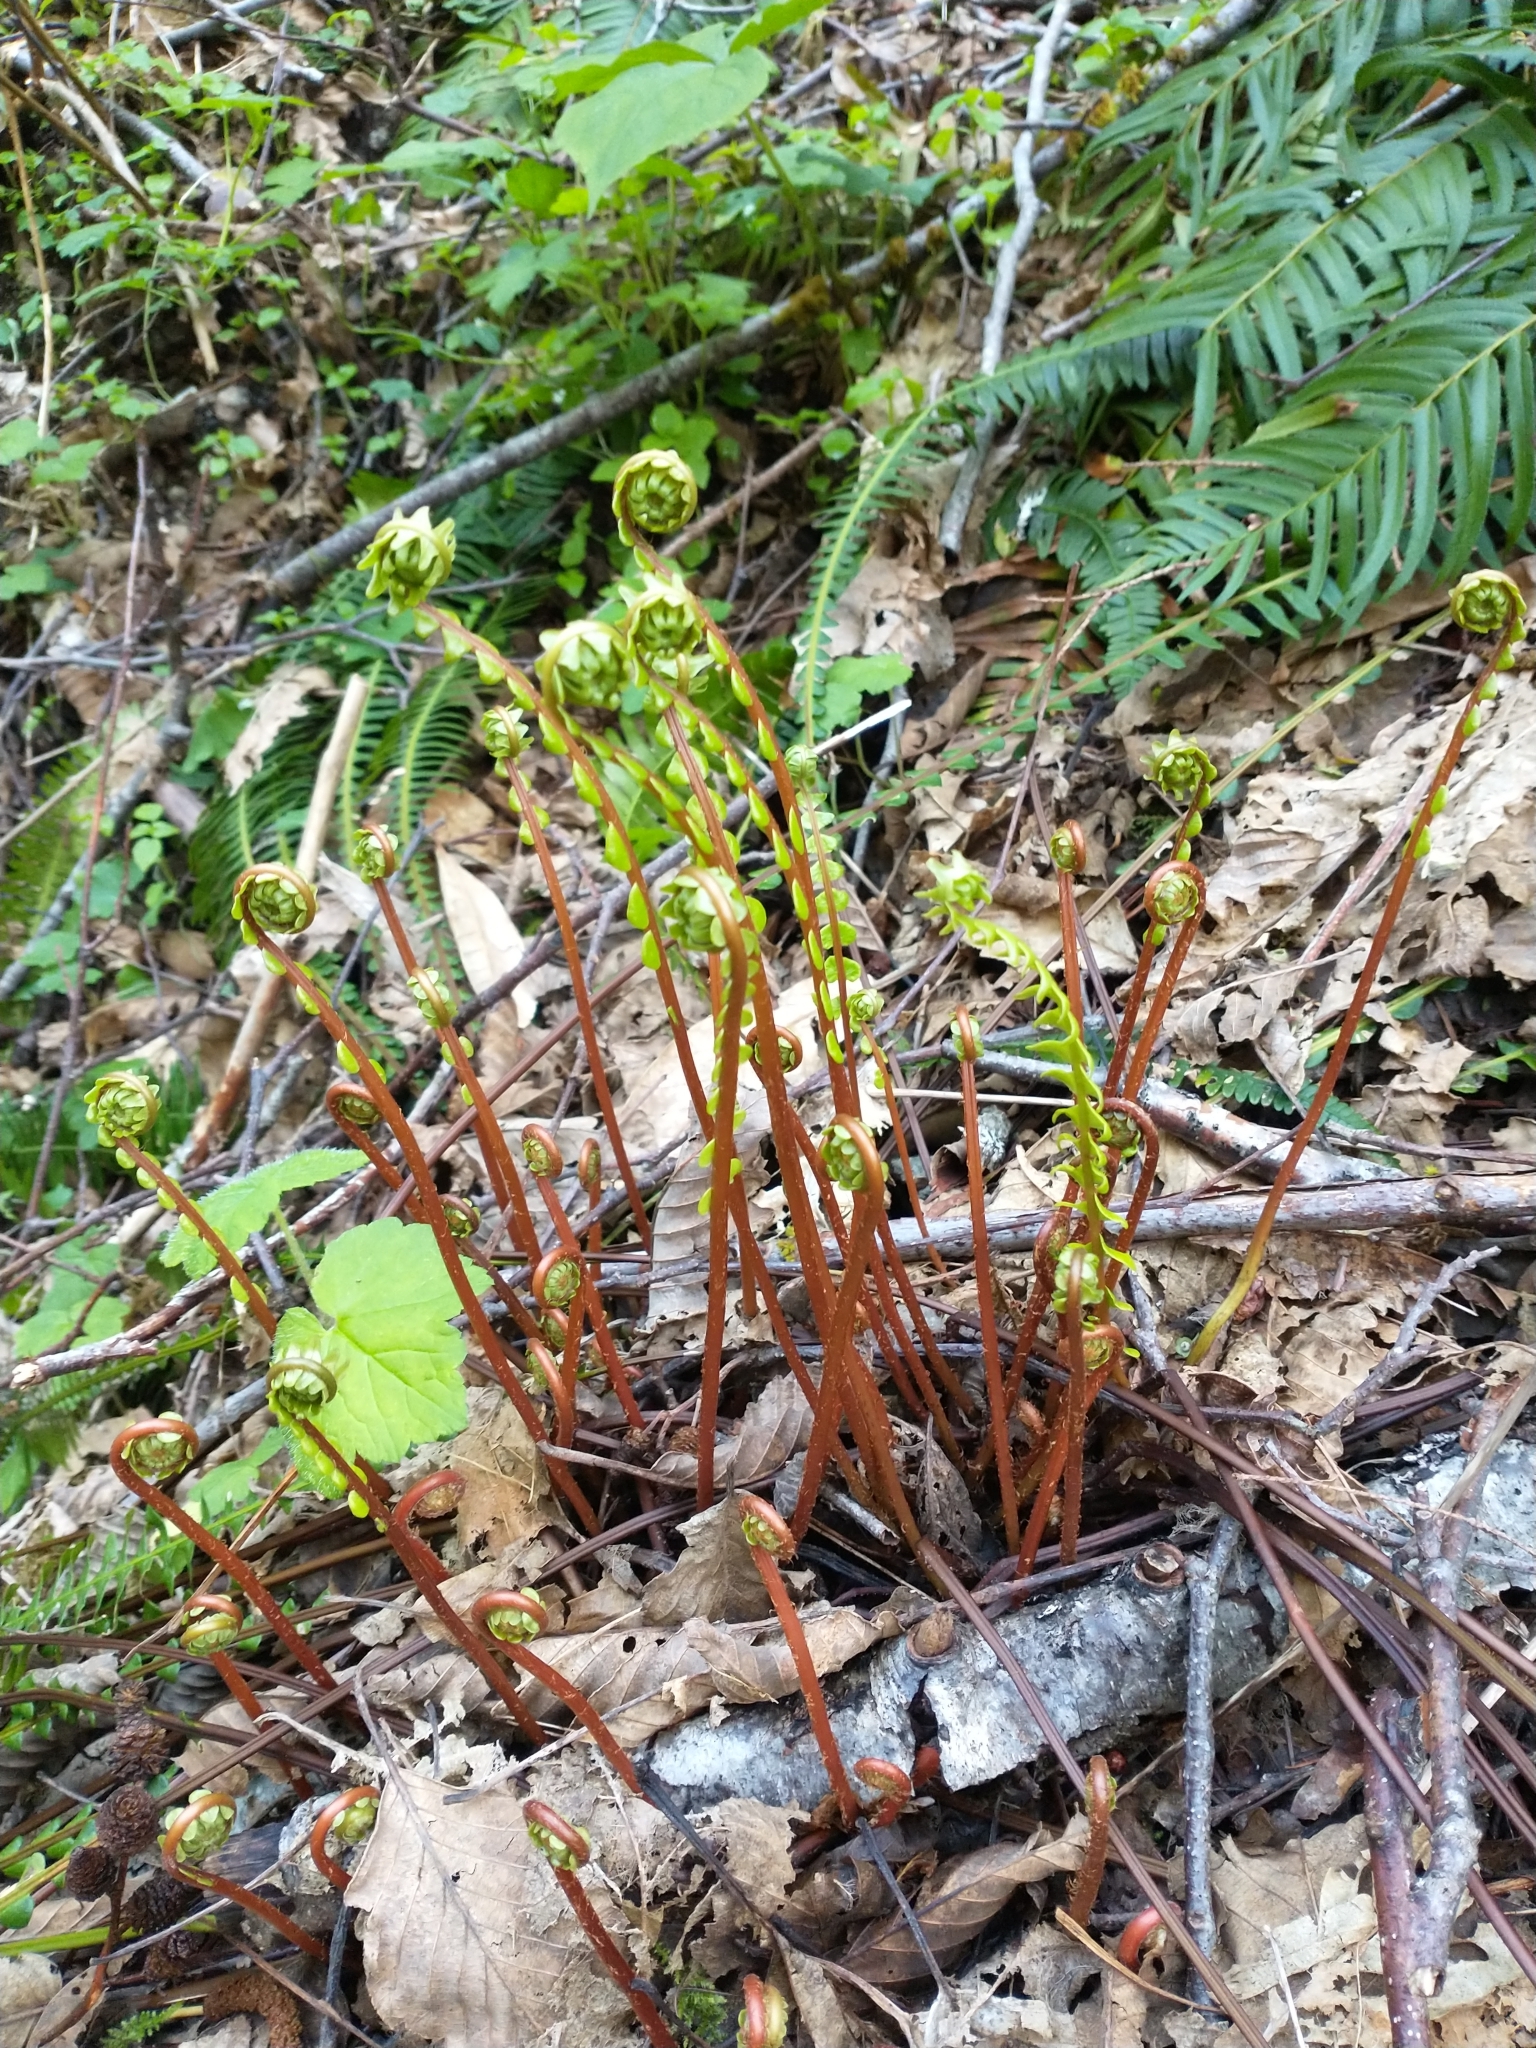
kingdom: Plantae
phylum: Tracheophyta
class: Polypodiopsida
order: Polypodiales
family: Blechnaceae
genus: Struthiopteris
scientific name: Struthiopteris spicant
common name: Deer fern
